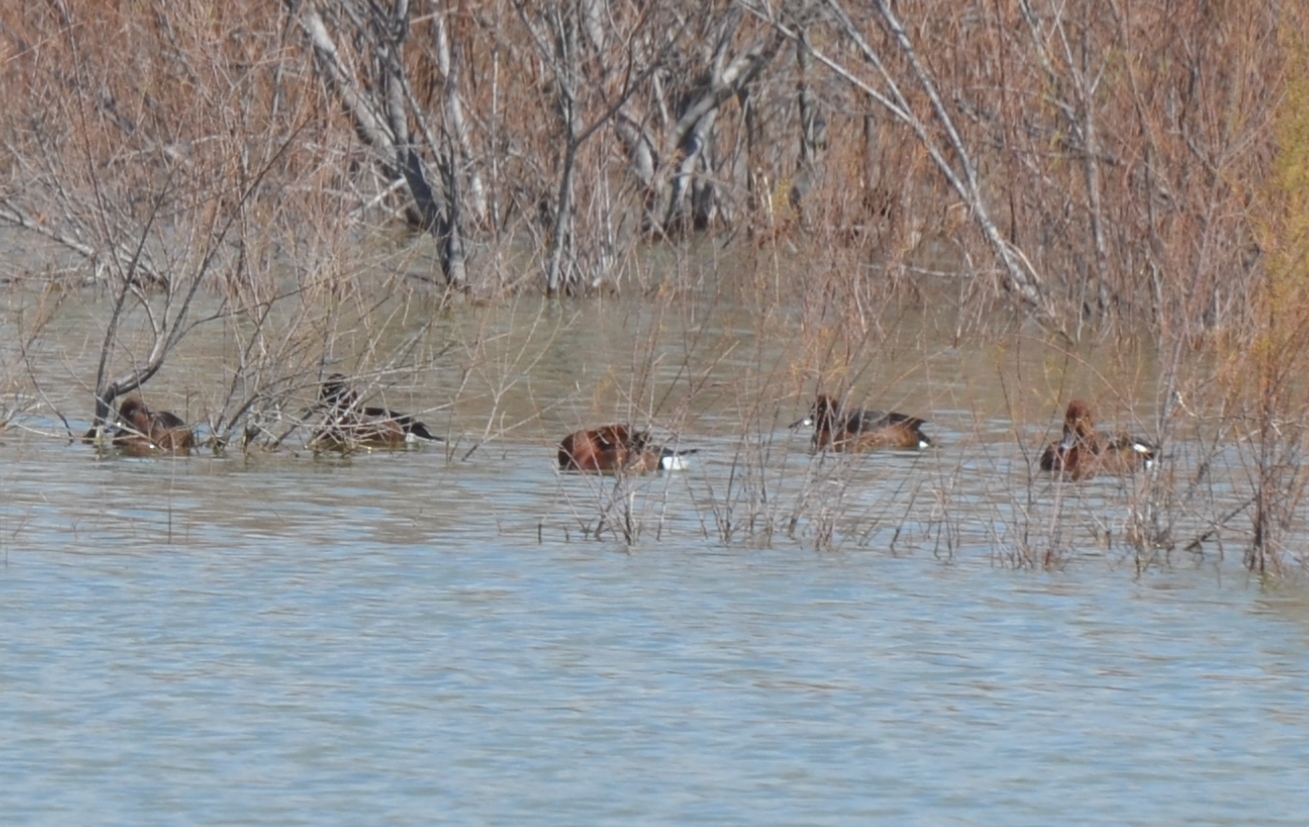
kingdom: Animalia
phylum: Chordata
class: Aves
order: Anseriformes
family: Anatidae
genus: Aythya
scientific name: Aythya nyroca
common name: Ferruginous duck
